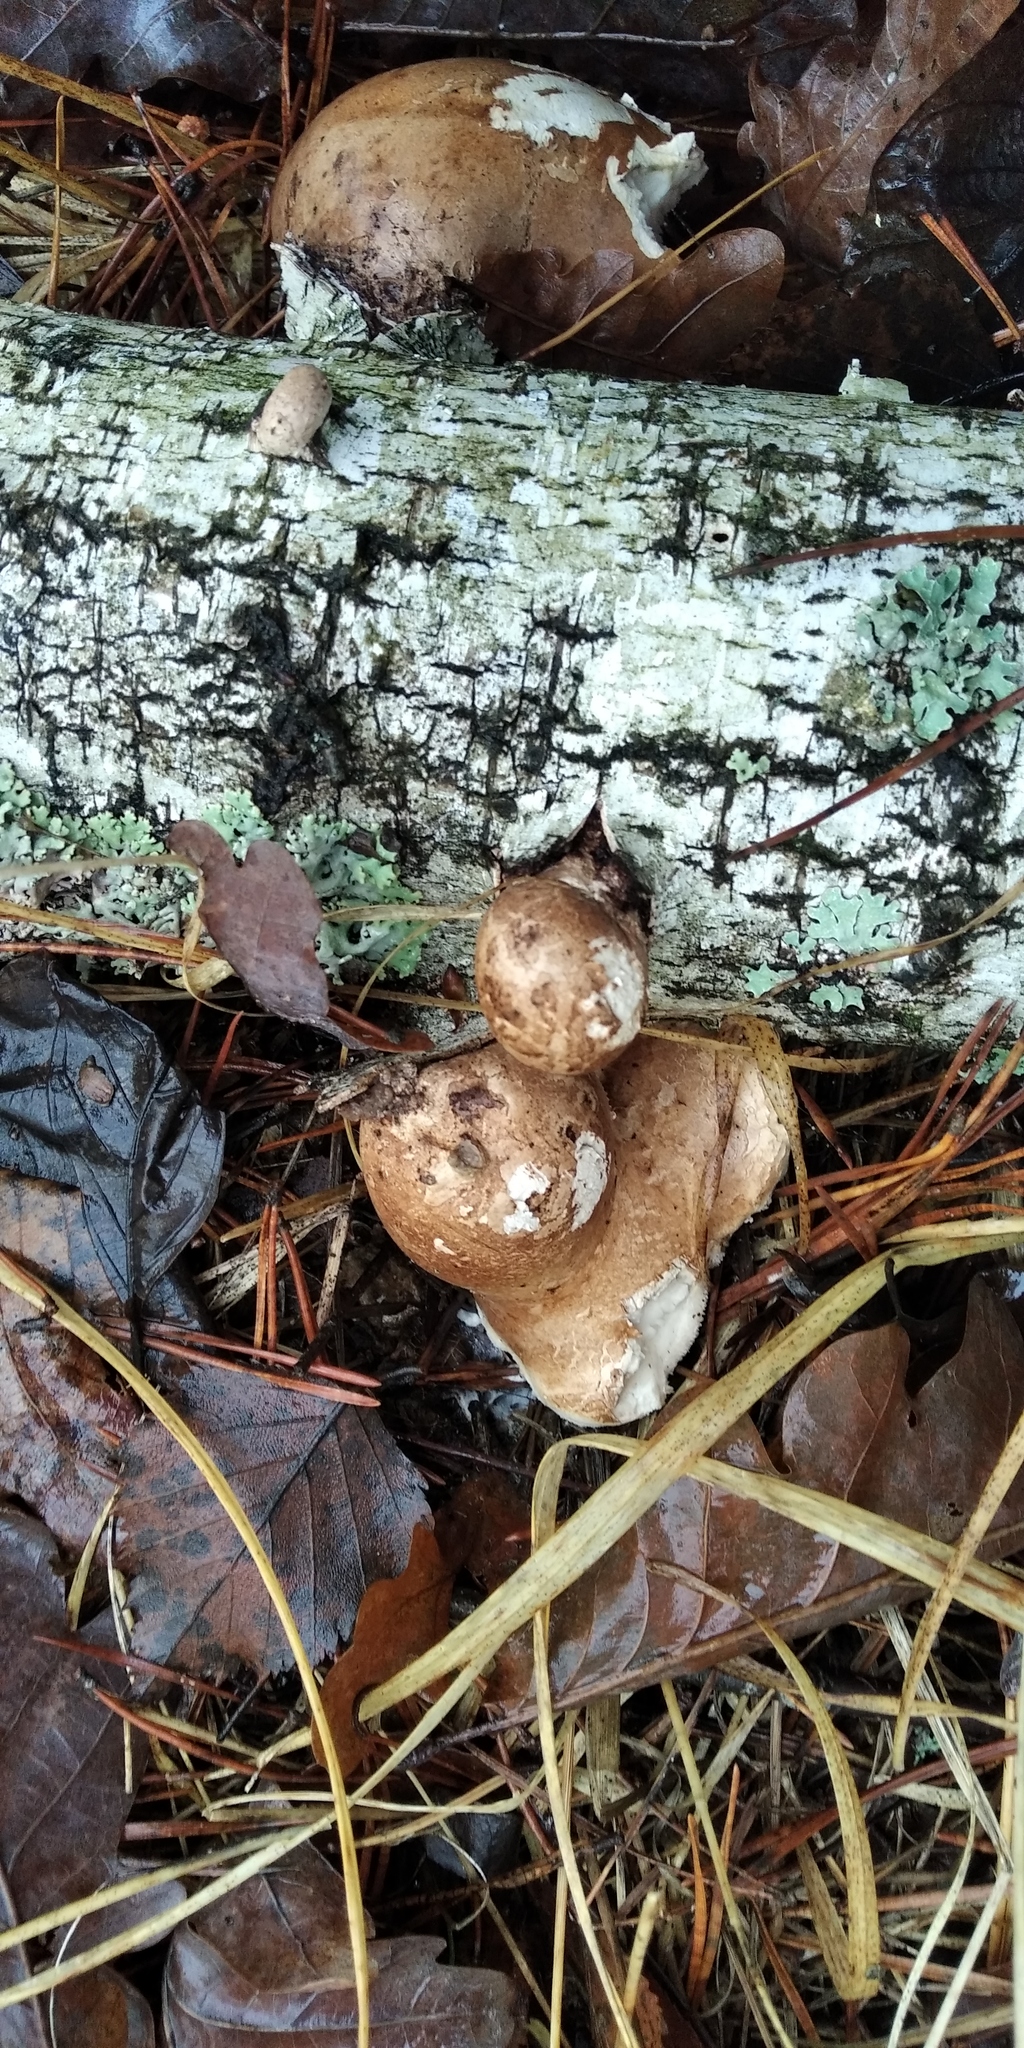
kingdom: Fungi
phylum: Basidiomycota
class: Agaricomycetes
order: Polyporales
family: Fomitopsidaceae
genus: Fomitopsis
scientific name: Fomitopsis betulina
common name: Birch polypore
